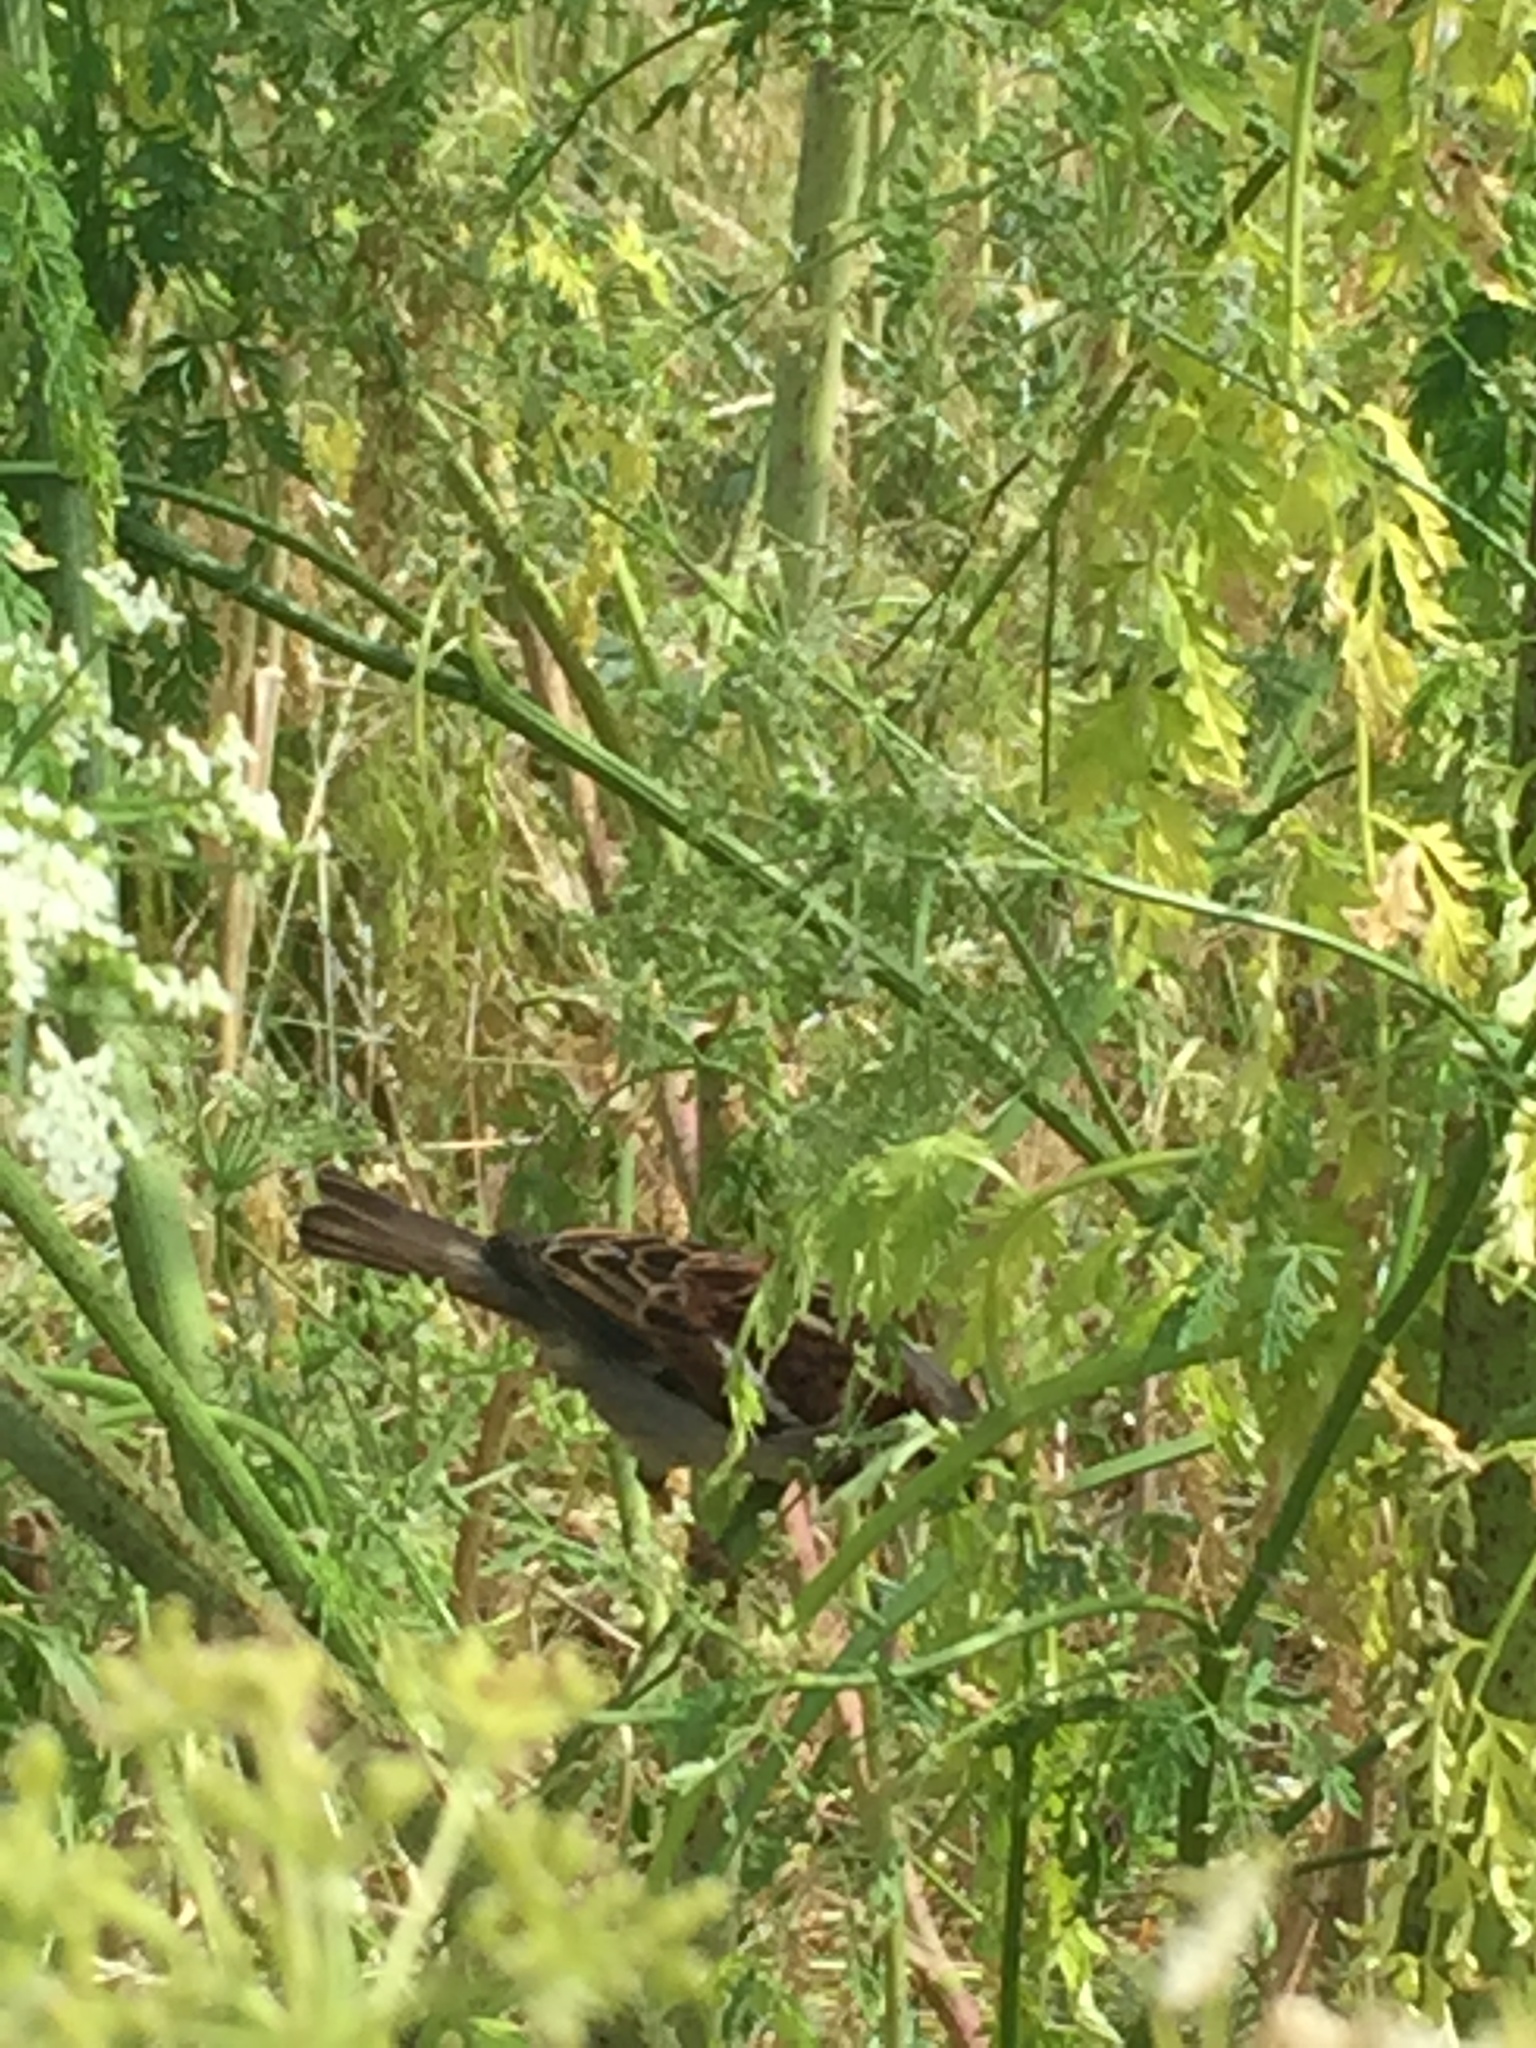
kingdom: Animalia
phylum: Chordata
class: Aves
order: Passeriformes
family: Passeridae
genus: Passer
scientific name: Passer domesticus
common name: House sparrow
